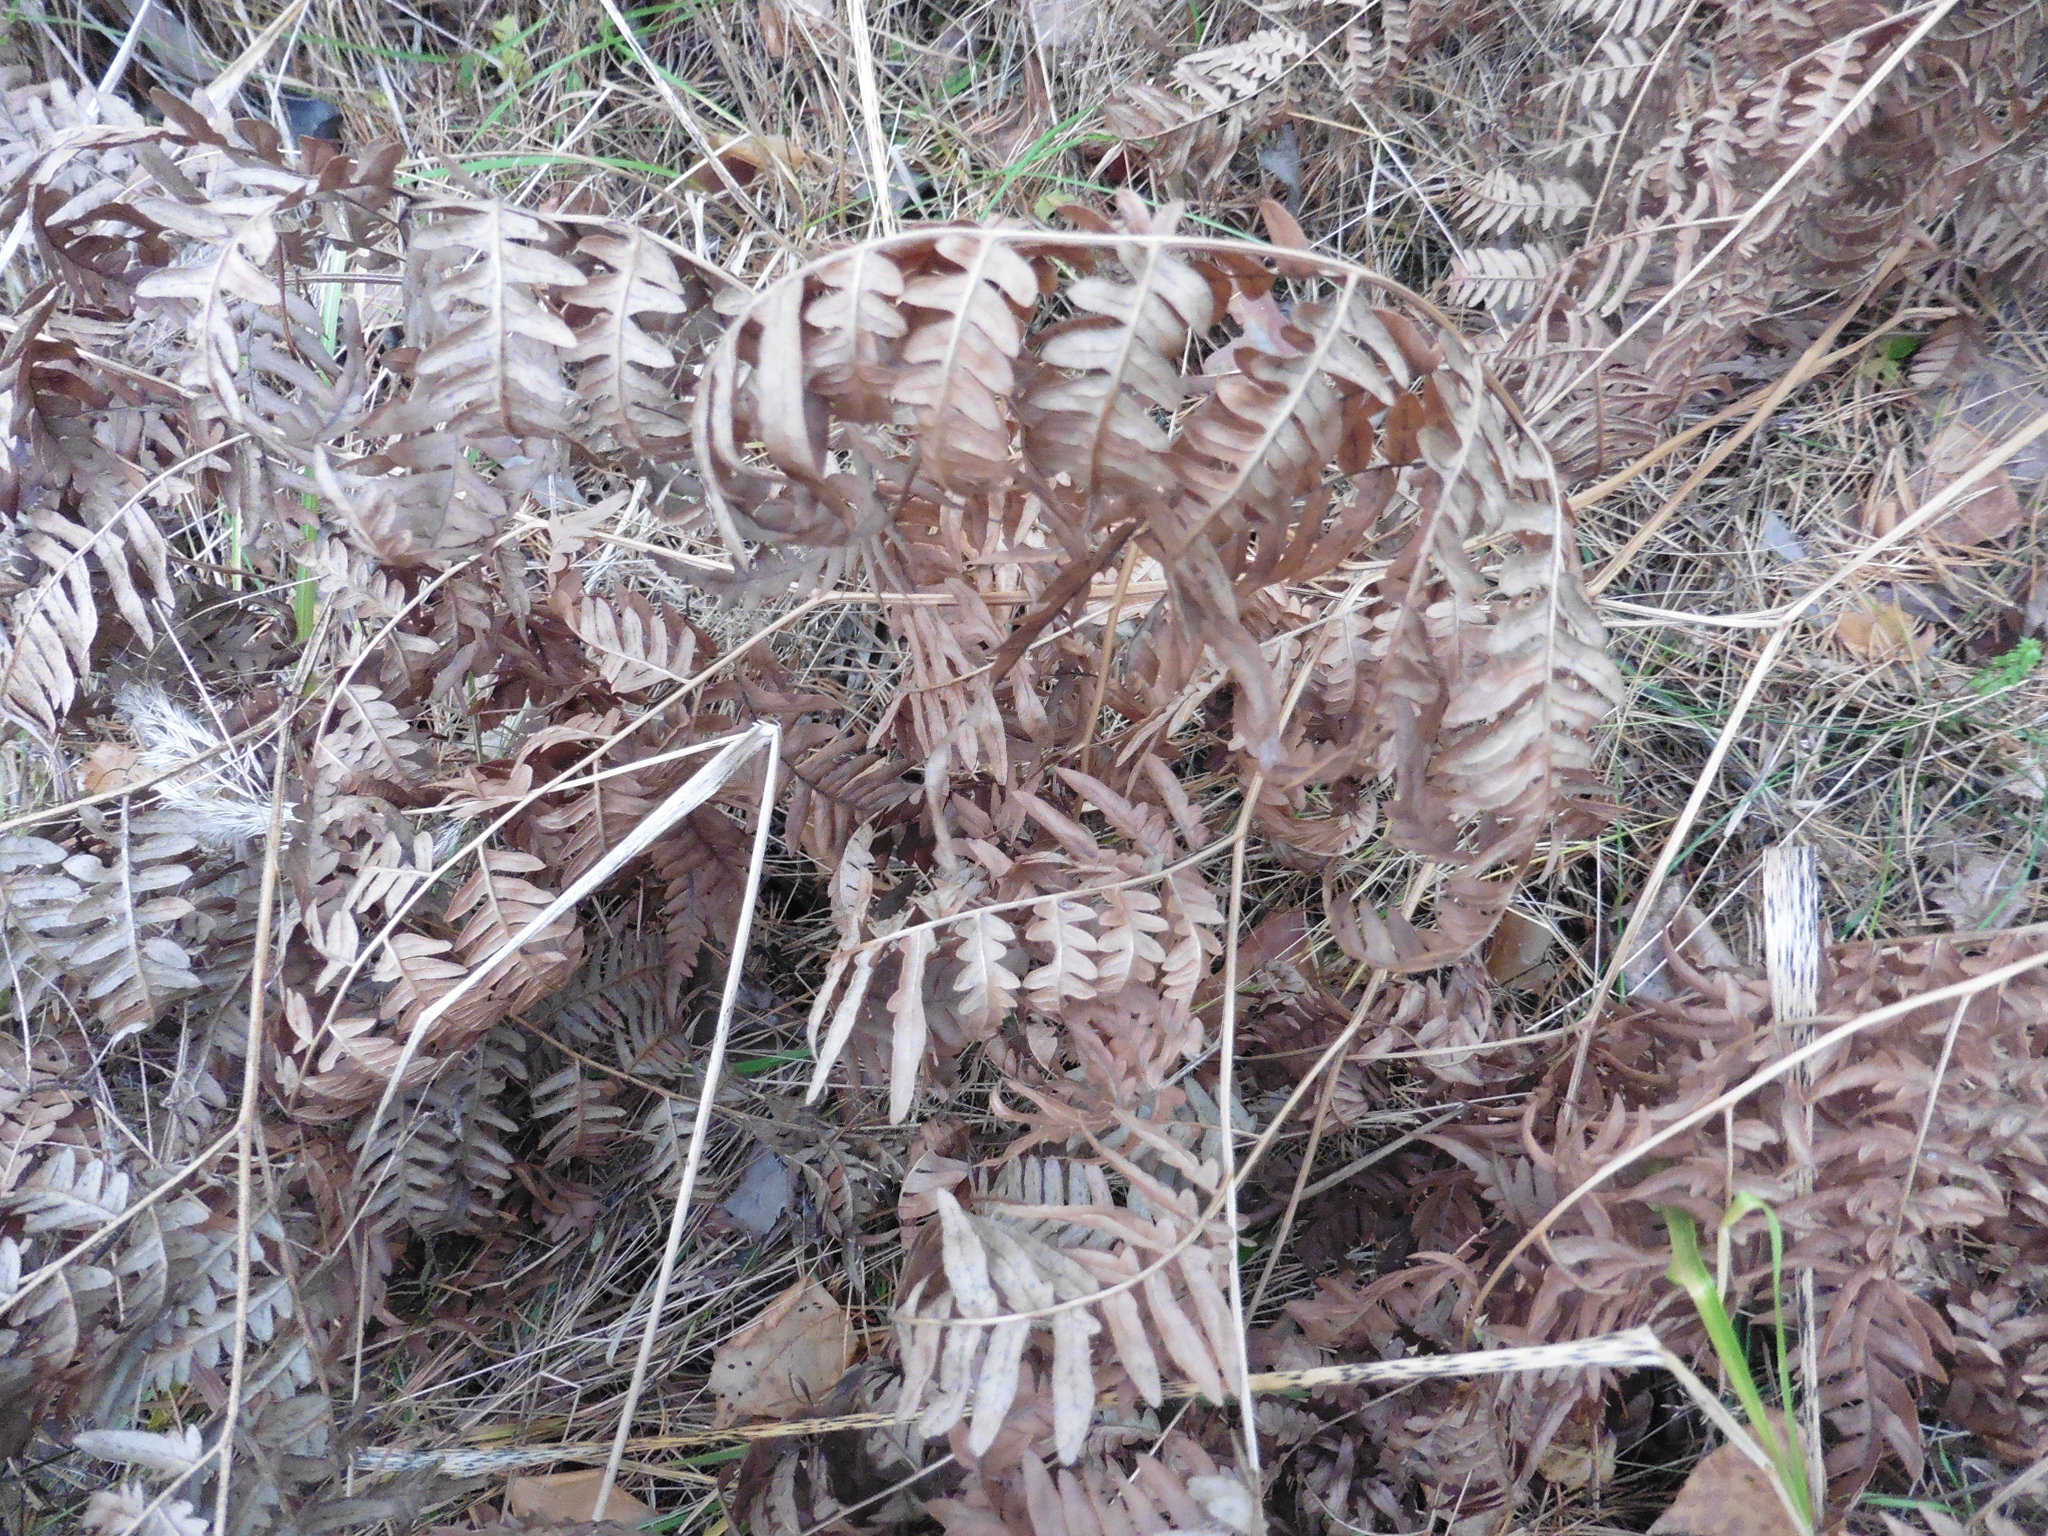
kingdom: Plantae
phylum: Tracheophyta
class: Polypodiopsida
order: Polypodiales
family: Dennstaedtiaceae
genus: Pteridium
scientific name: Pteridium aquilinum
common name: Bracken
